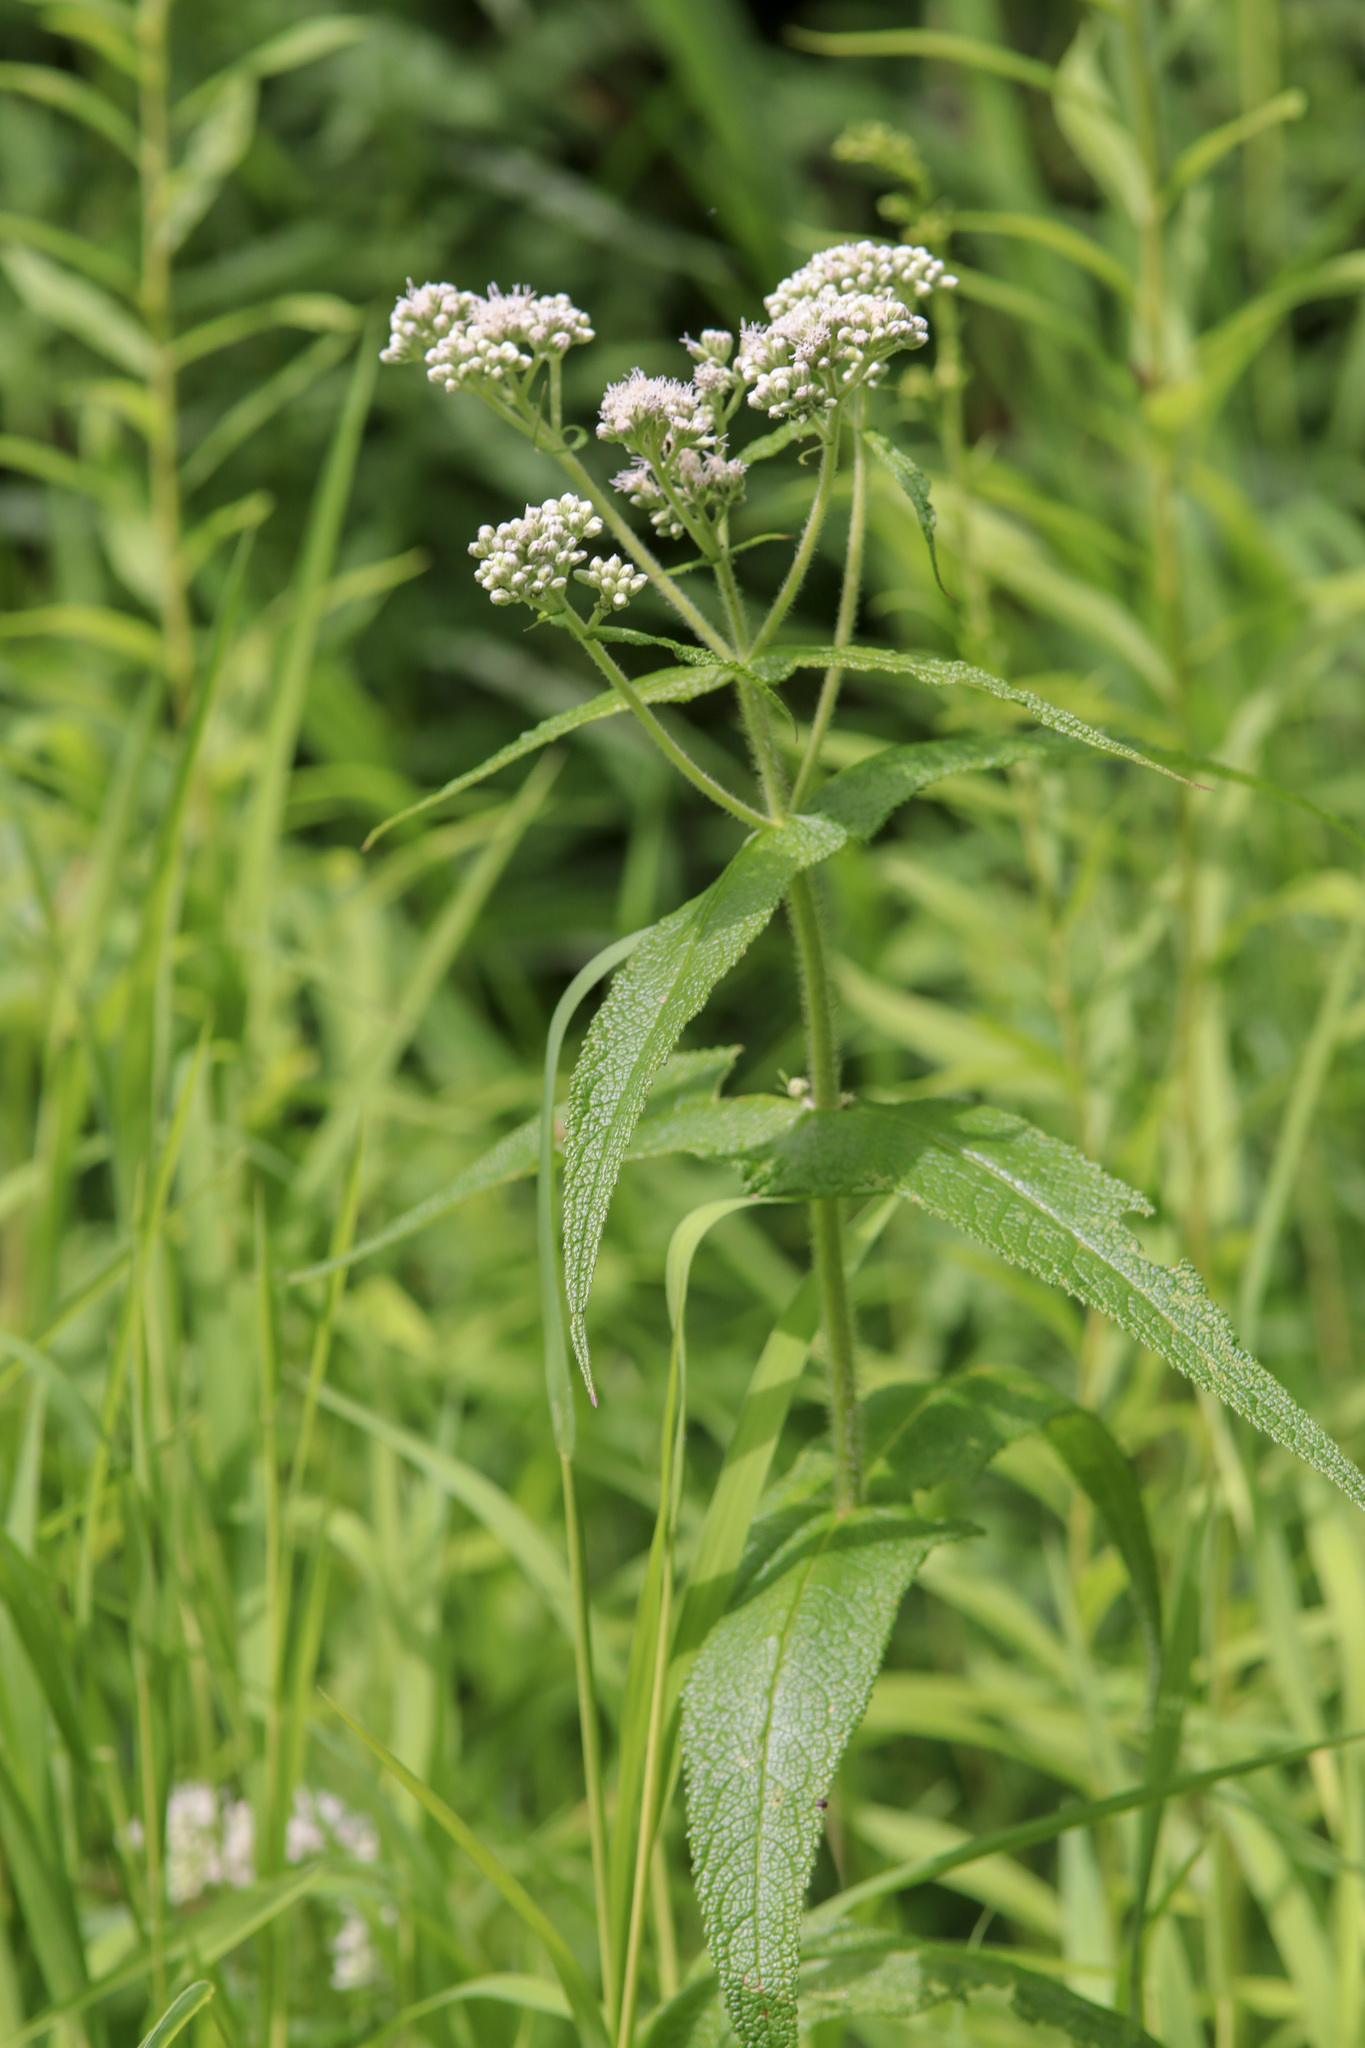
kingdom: Plantae
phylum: Tracheophyta
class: Magnoliopsida
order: Asterales
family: Asteraceae
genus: Eupatorium
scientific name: Eupatorium perfoliatum
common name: Boneset
